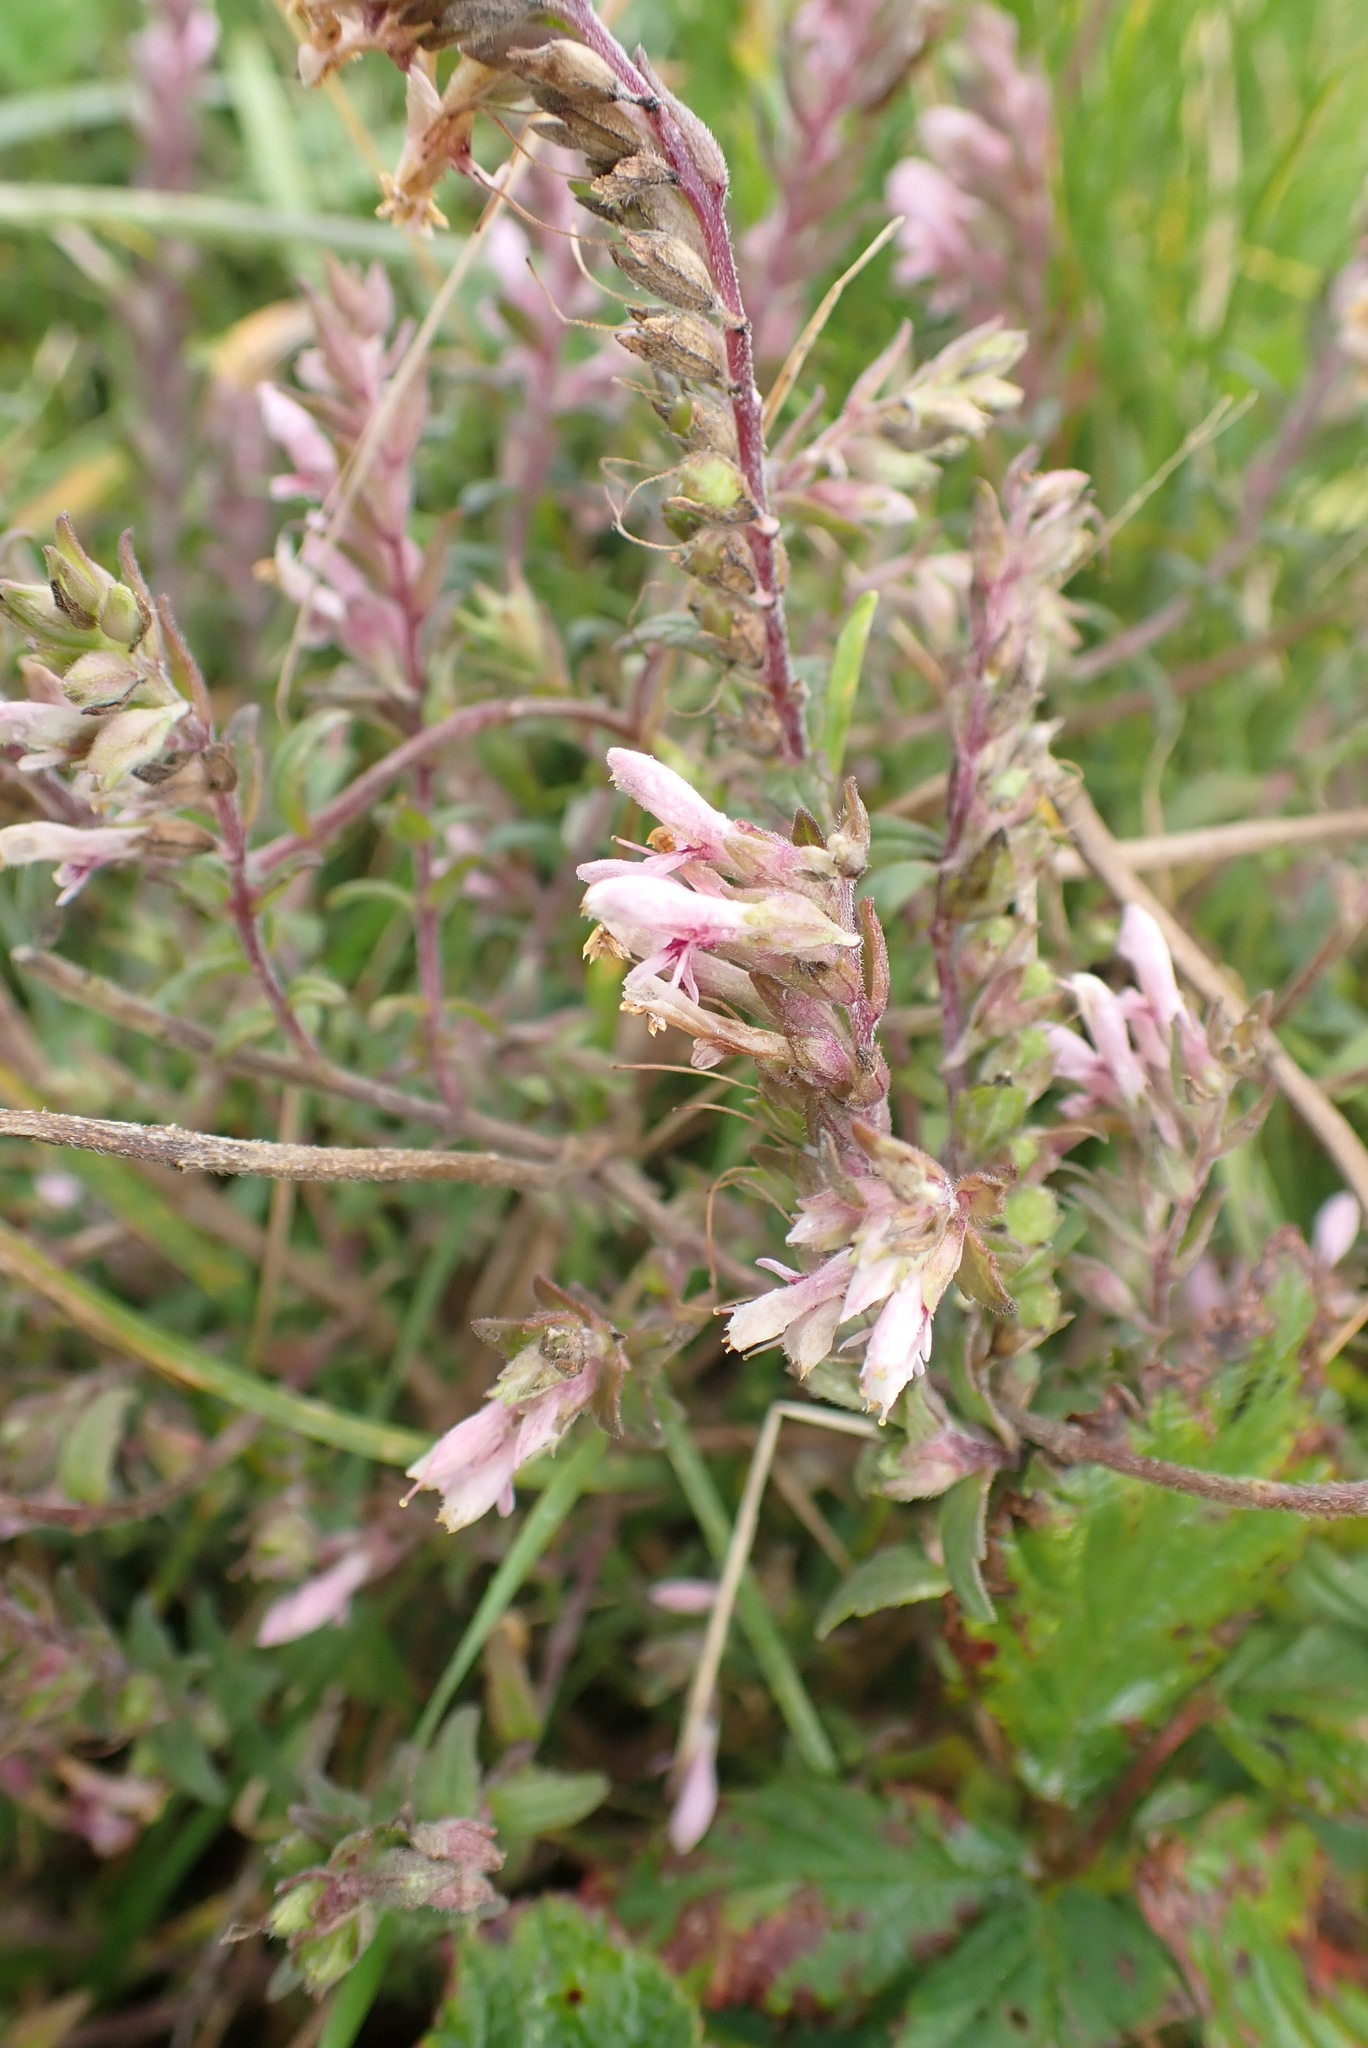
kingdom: Plantae
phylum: Tracheophyta
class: Magnoliopsida
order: Lamiales
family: Orobanchaceae
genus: Odontites
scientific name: Odontites vernus
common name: Red bartsia
